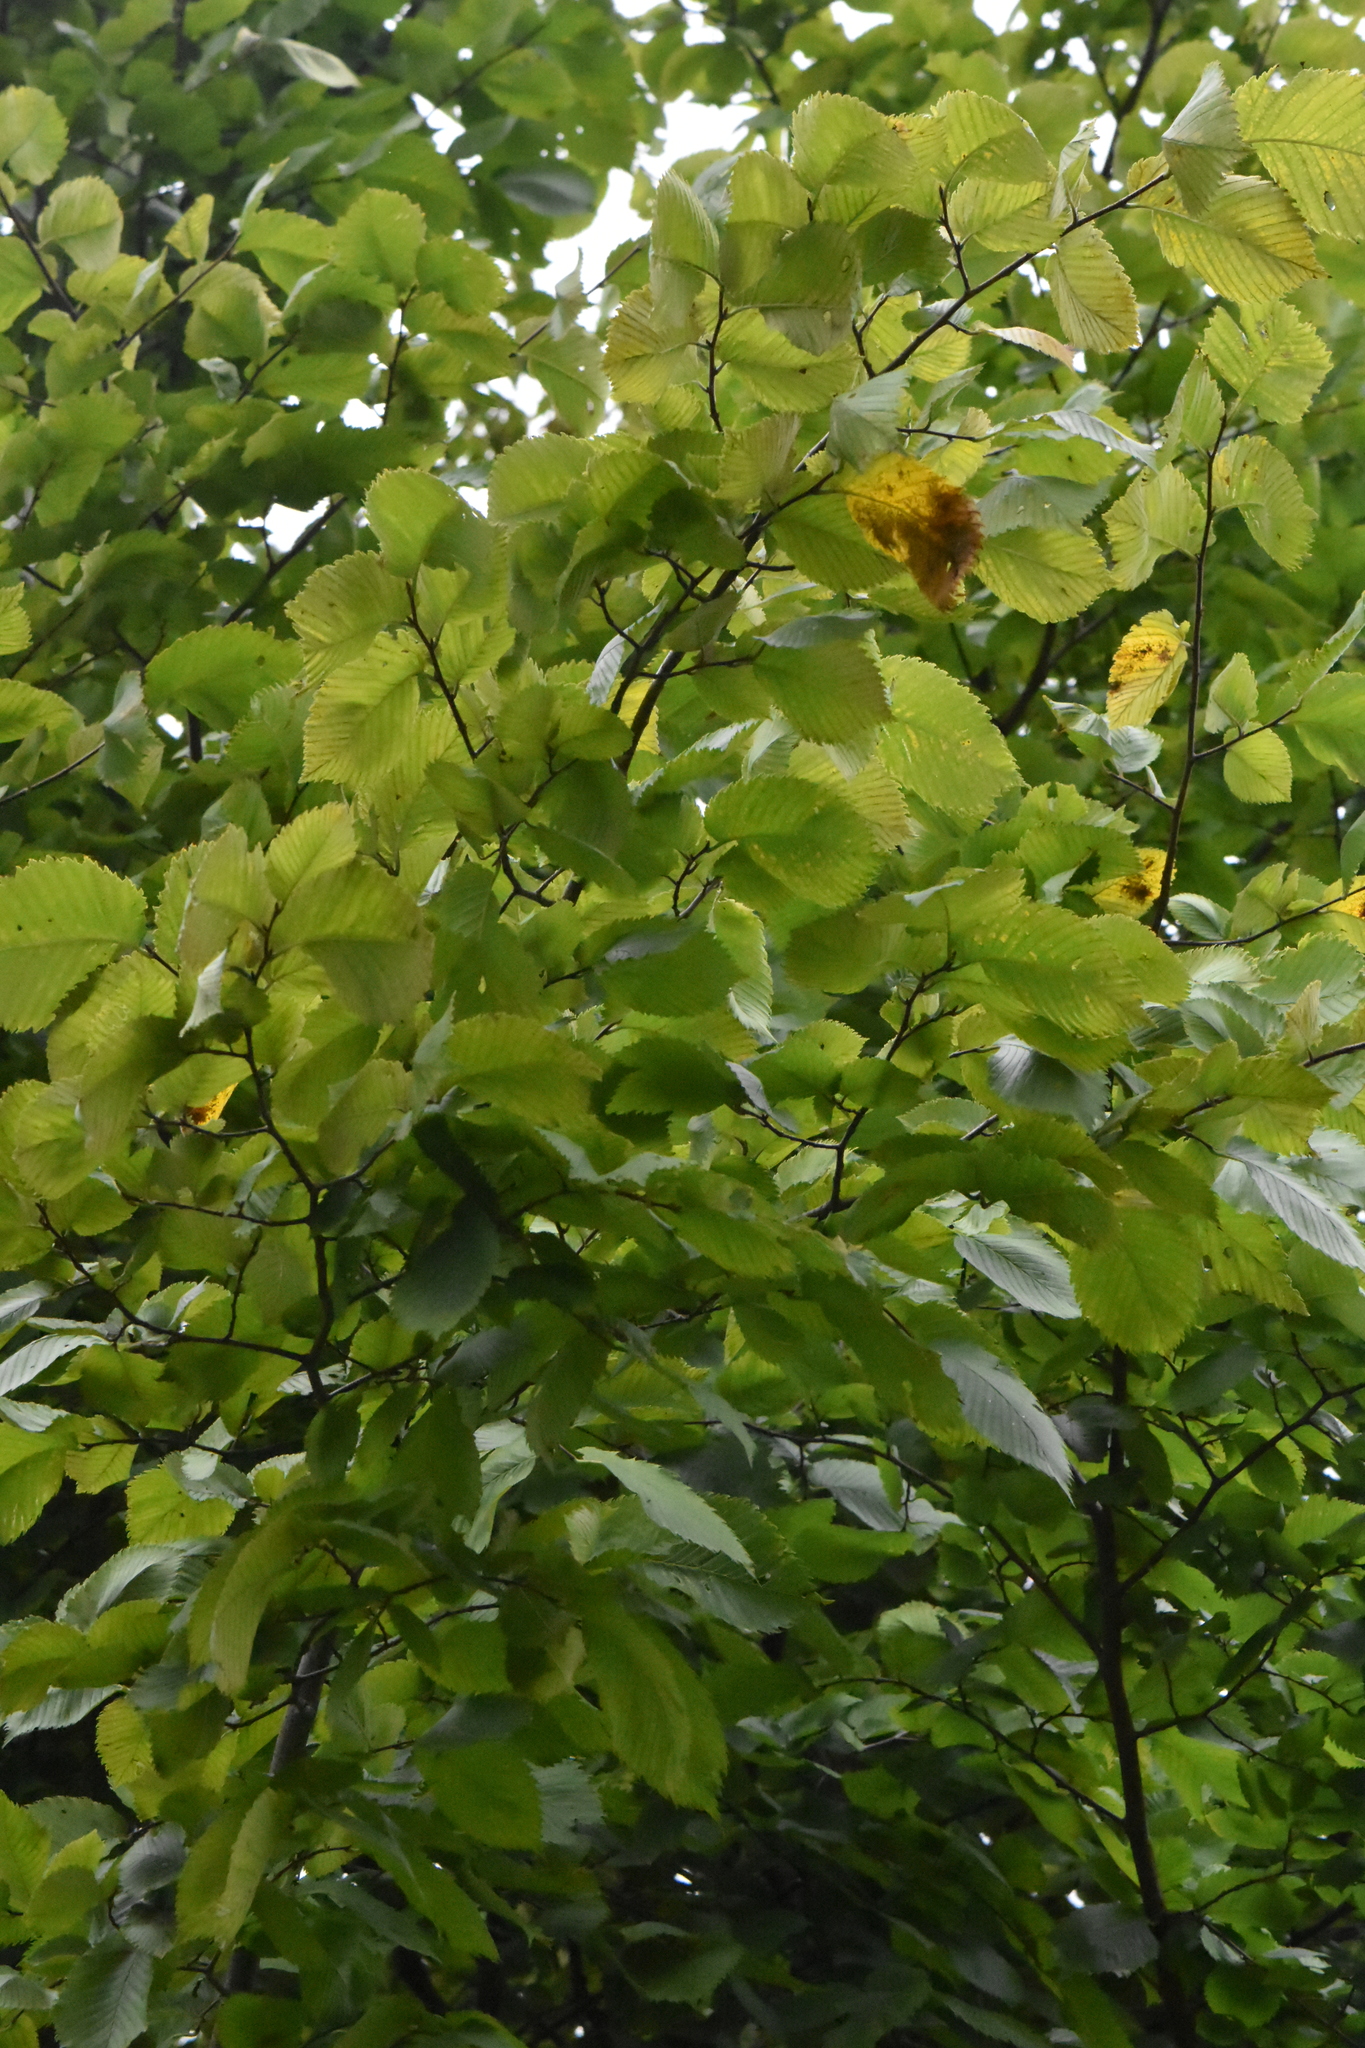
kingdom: Plantae
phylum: Tracheophyta
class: Magnoliopsida
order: Rosales
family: Ulmaceae
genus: Ulmus
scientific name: Ulmus laevis
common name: European white-elm
